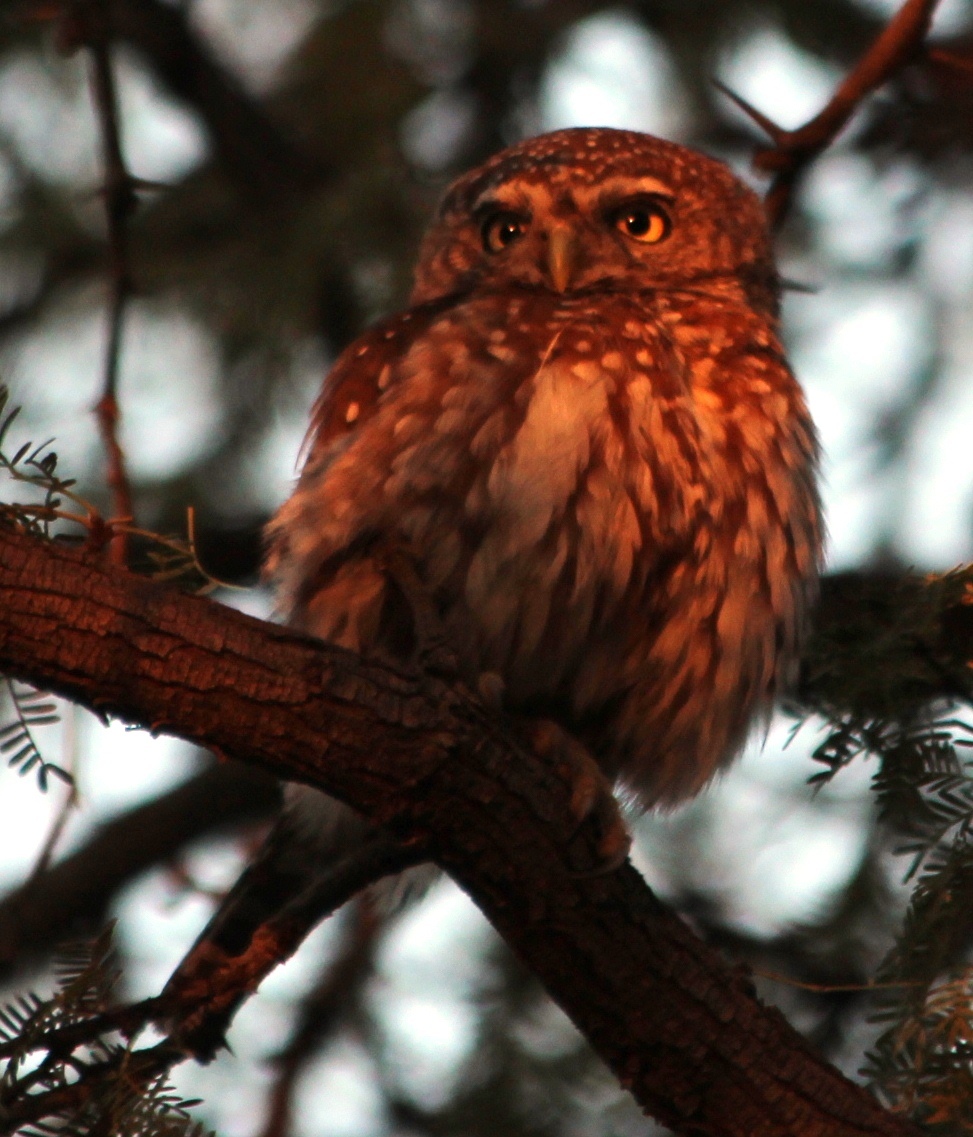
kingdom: Animalia
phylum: Chordata
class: Aves
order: Strigiformes
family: Strigidae
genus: Glaucidium
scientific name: Glaucidium perlatum
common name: Pearl-spotted owlet
